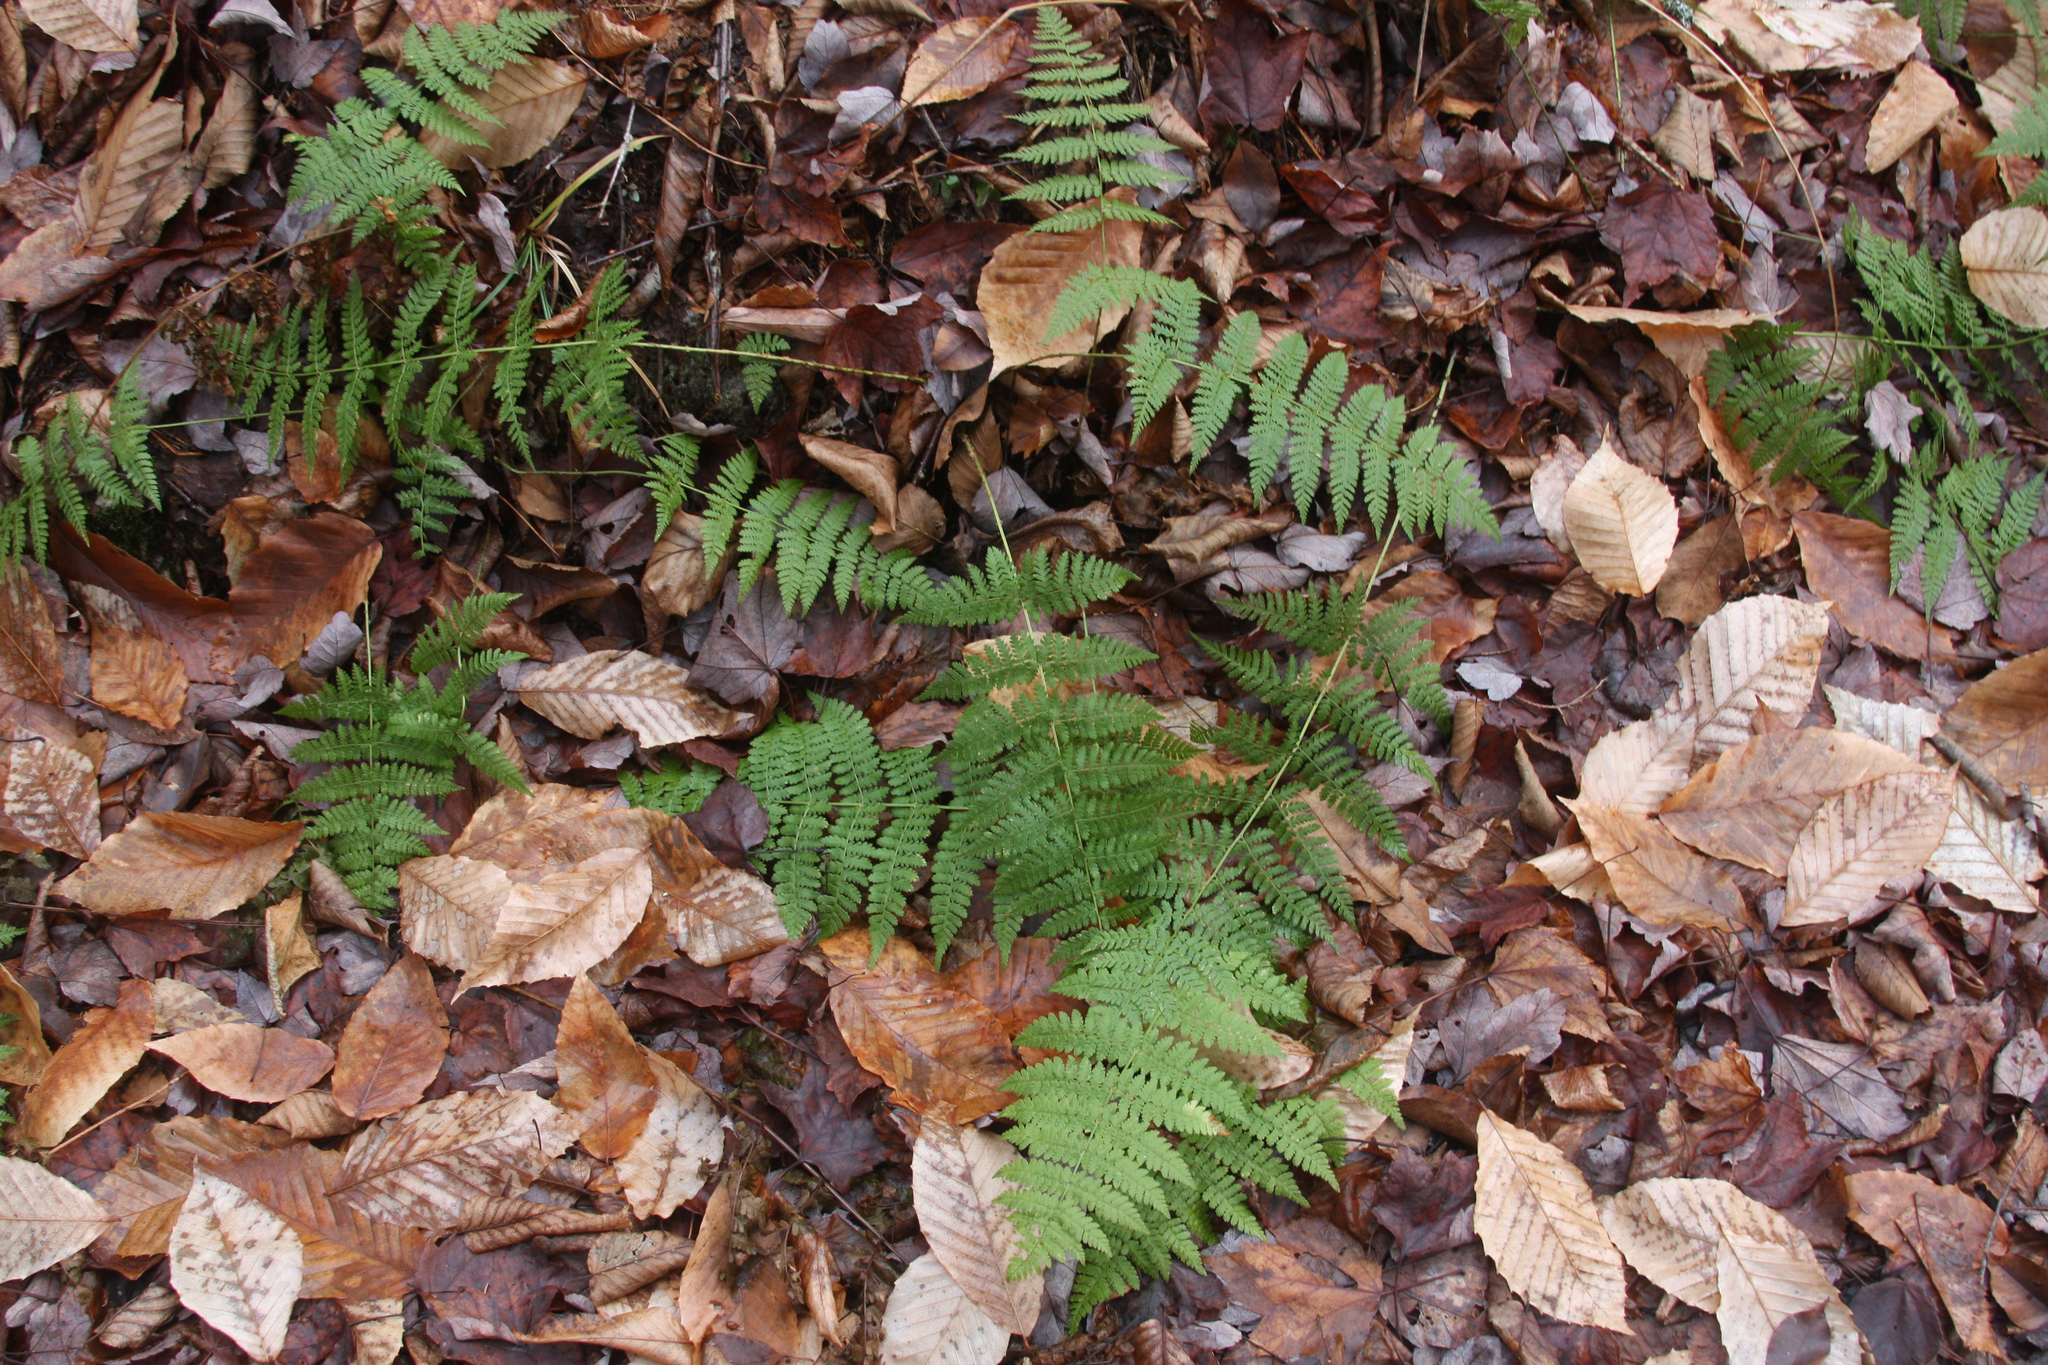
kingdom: Plantae
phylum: Tracheophyta
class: Polypodiopsida
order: Polypodiales
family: Dryopteridaceae
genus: Dryopteris
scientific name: Dryopteris intermedia
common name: Evergreen wood fern
